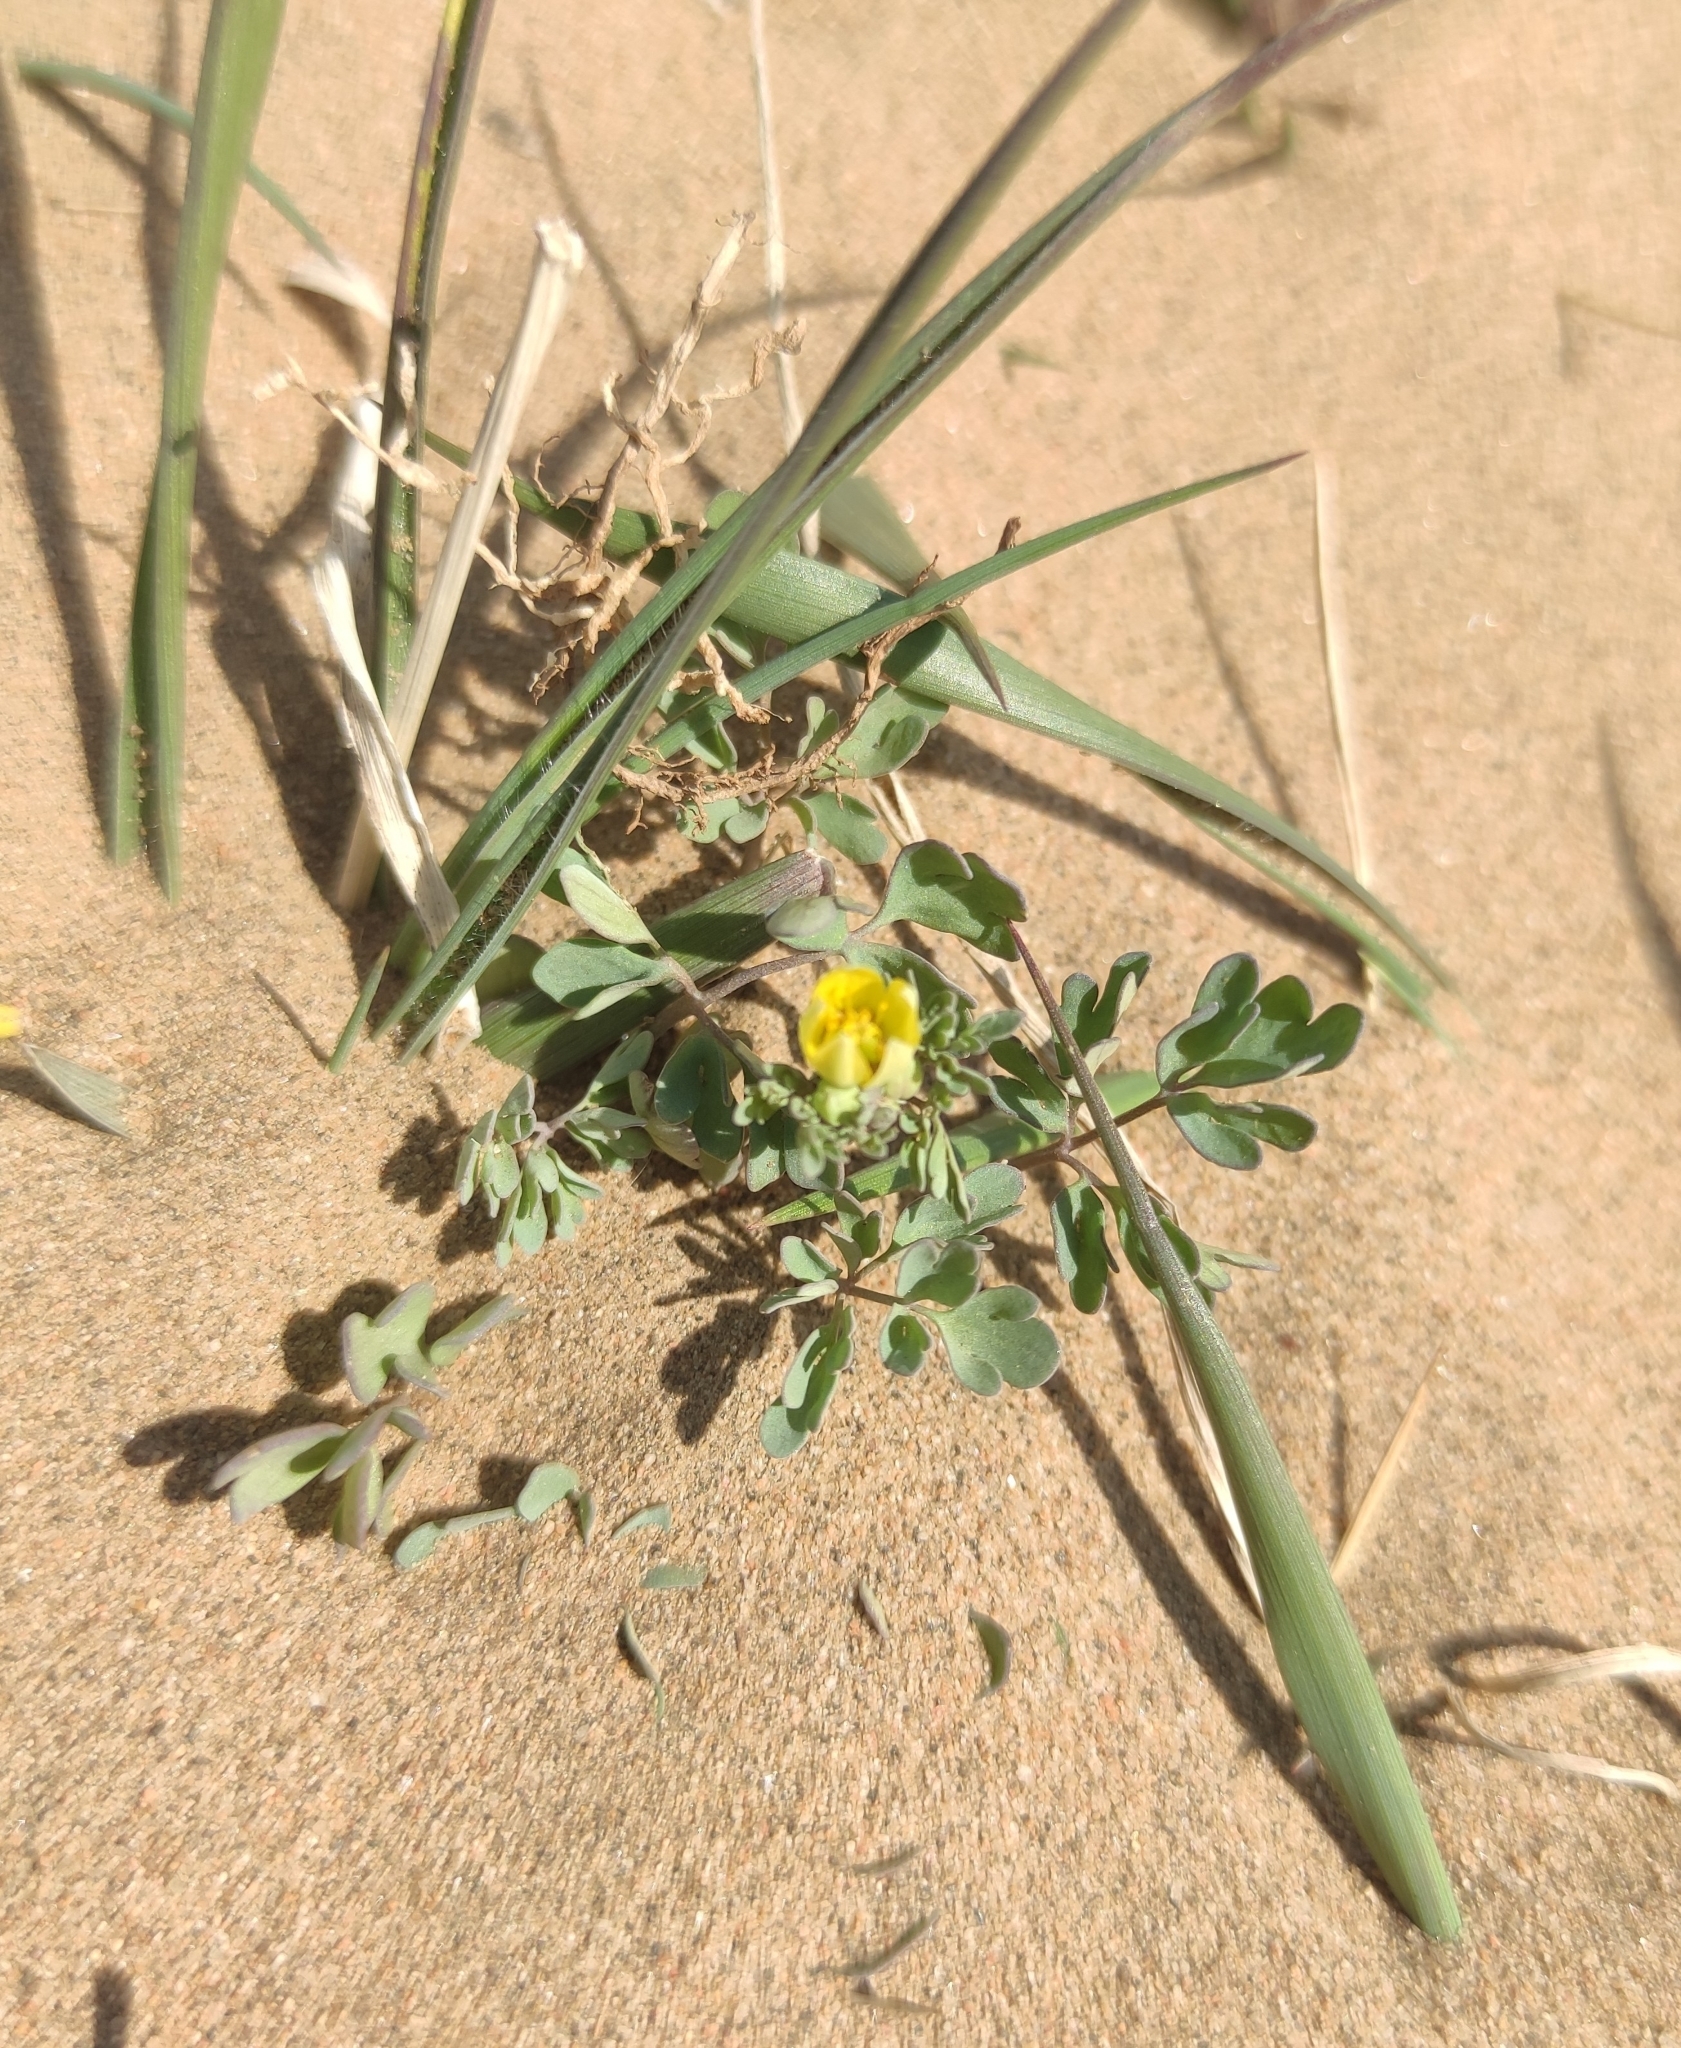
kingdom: Plantae
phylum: Tracheophyta
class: Magnoliopsida
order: Ranunculales
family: Ranunculaceae
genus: Leptopyrum
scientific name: Leptopyrum fumarioides
